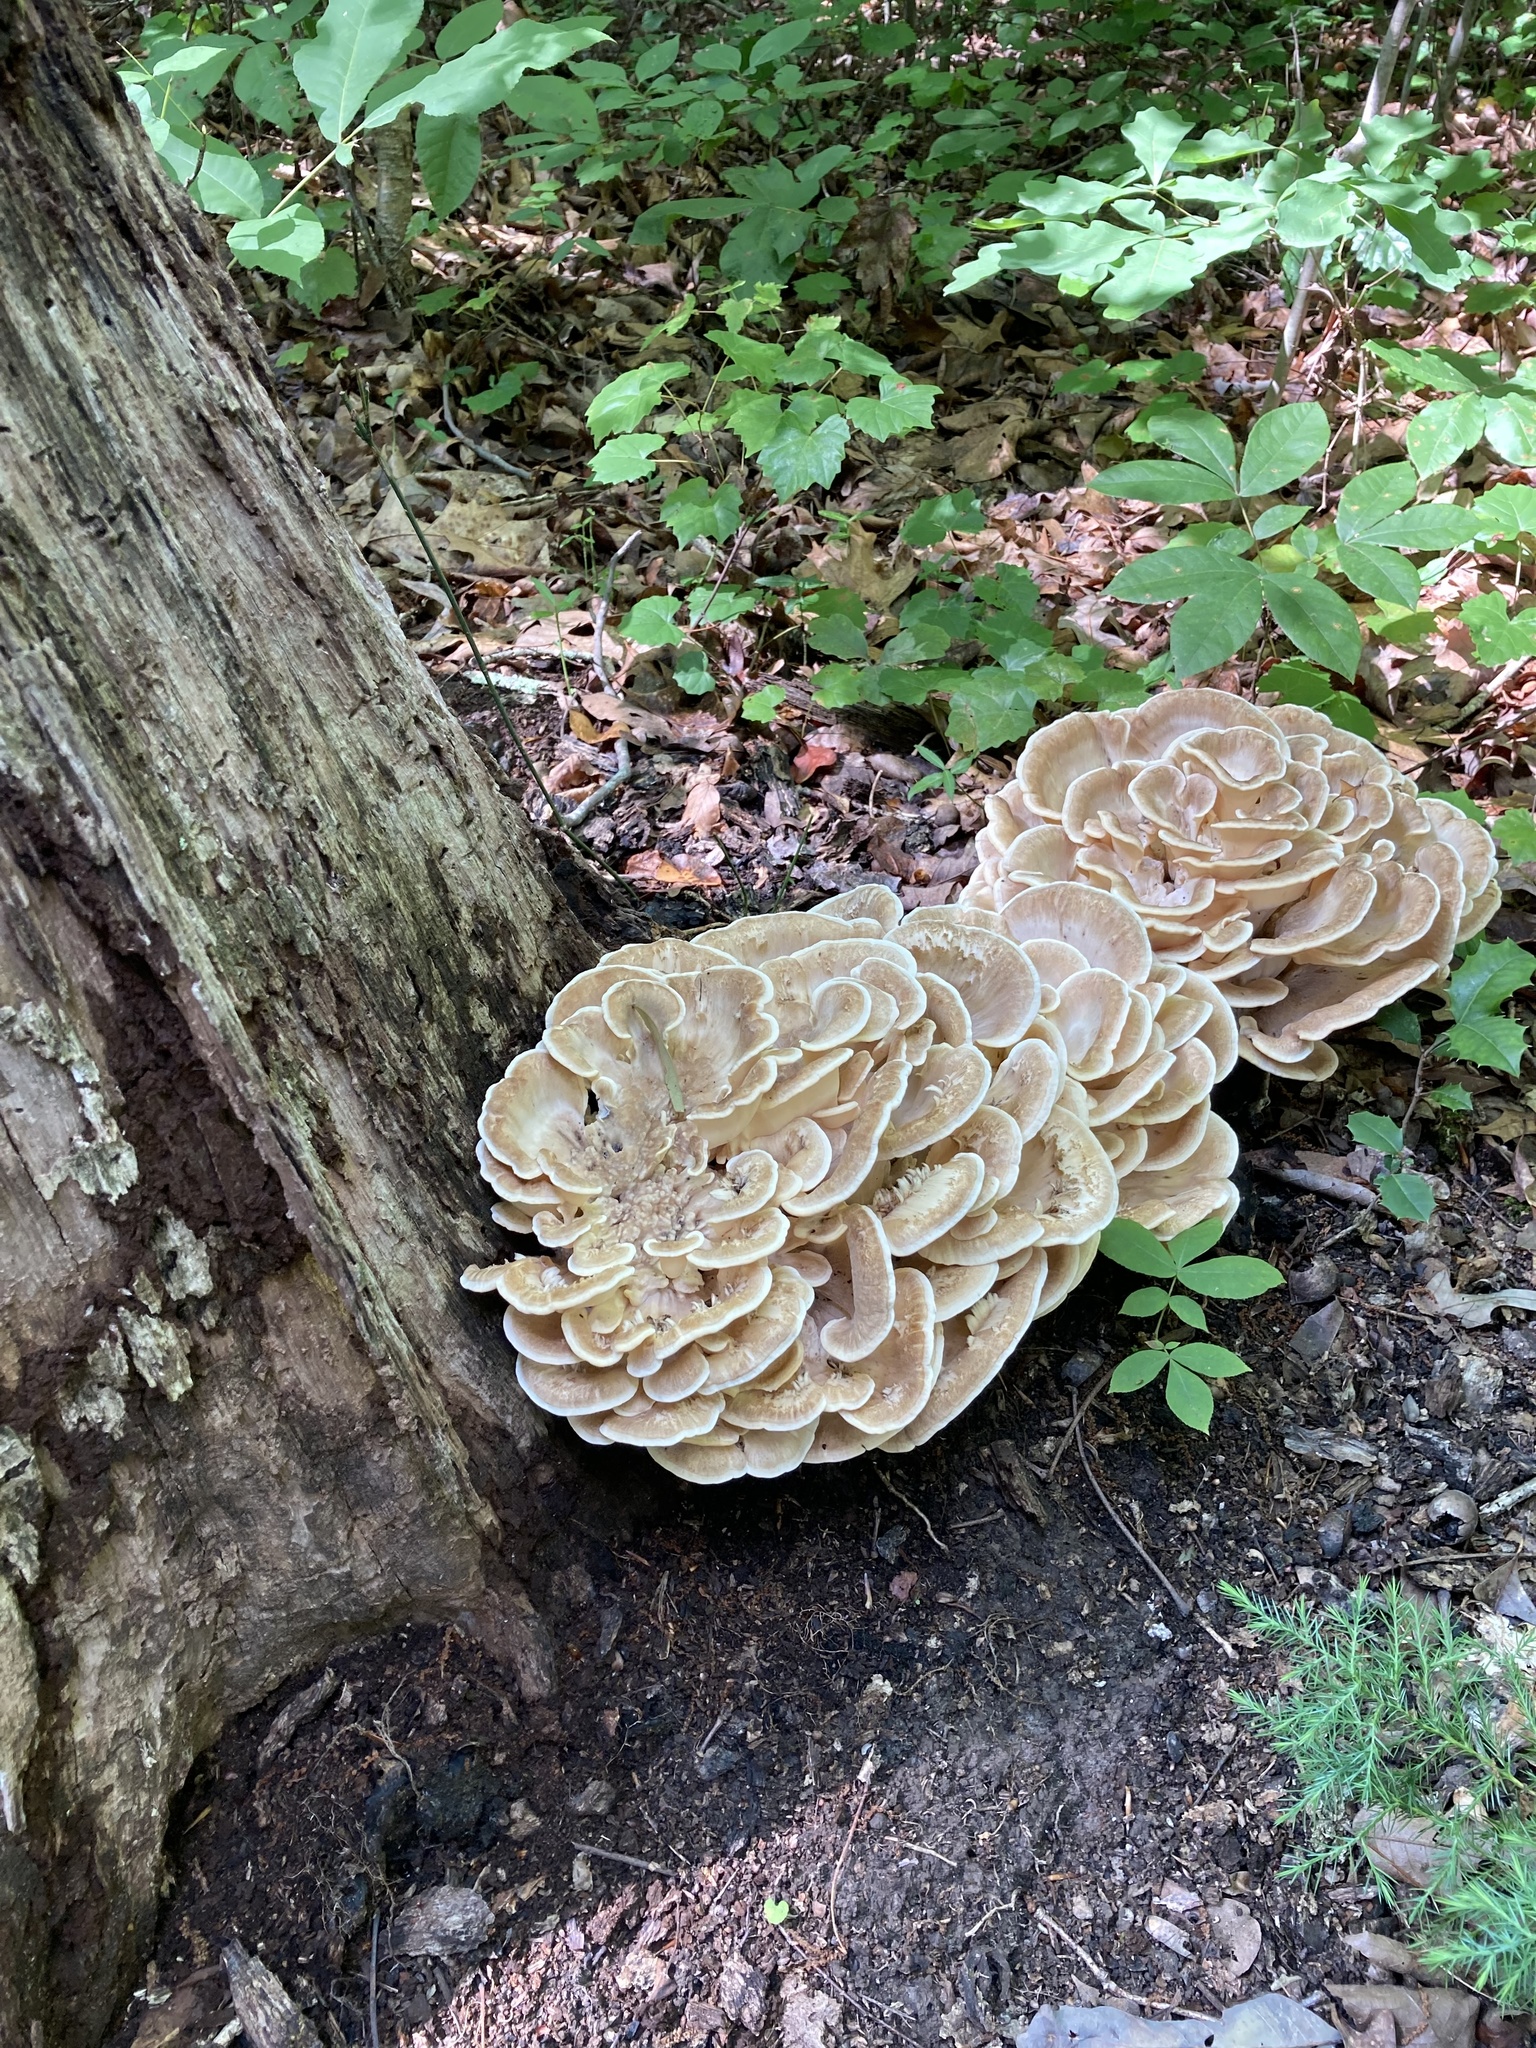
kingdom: Fungi
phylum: Basidiomycota
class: Agaricomycetes
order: Polyporales
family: Meripilaceae
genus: Meripilus
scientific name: Meripilus sumstinei
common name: Black-staining polypore
